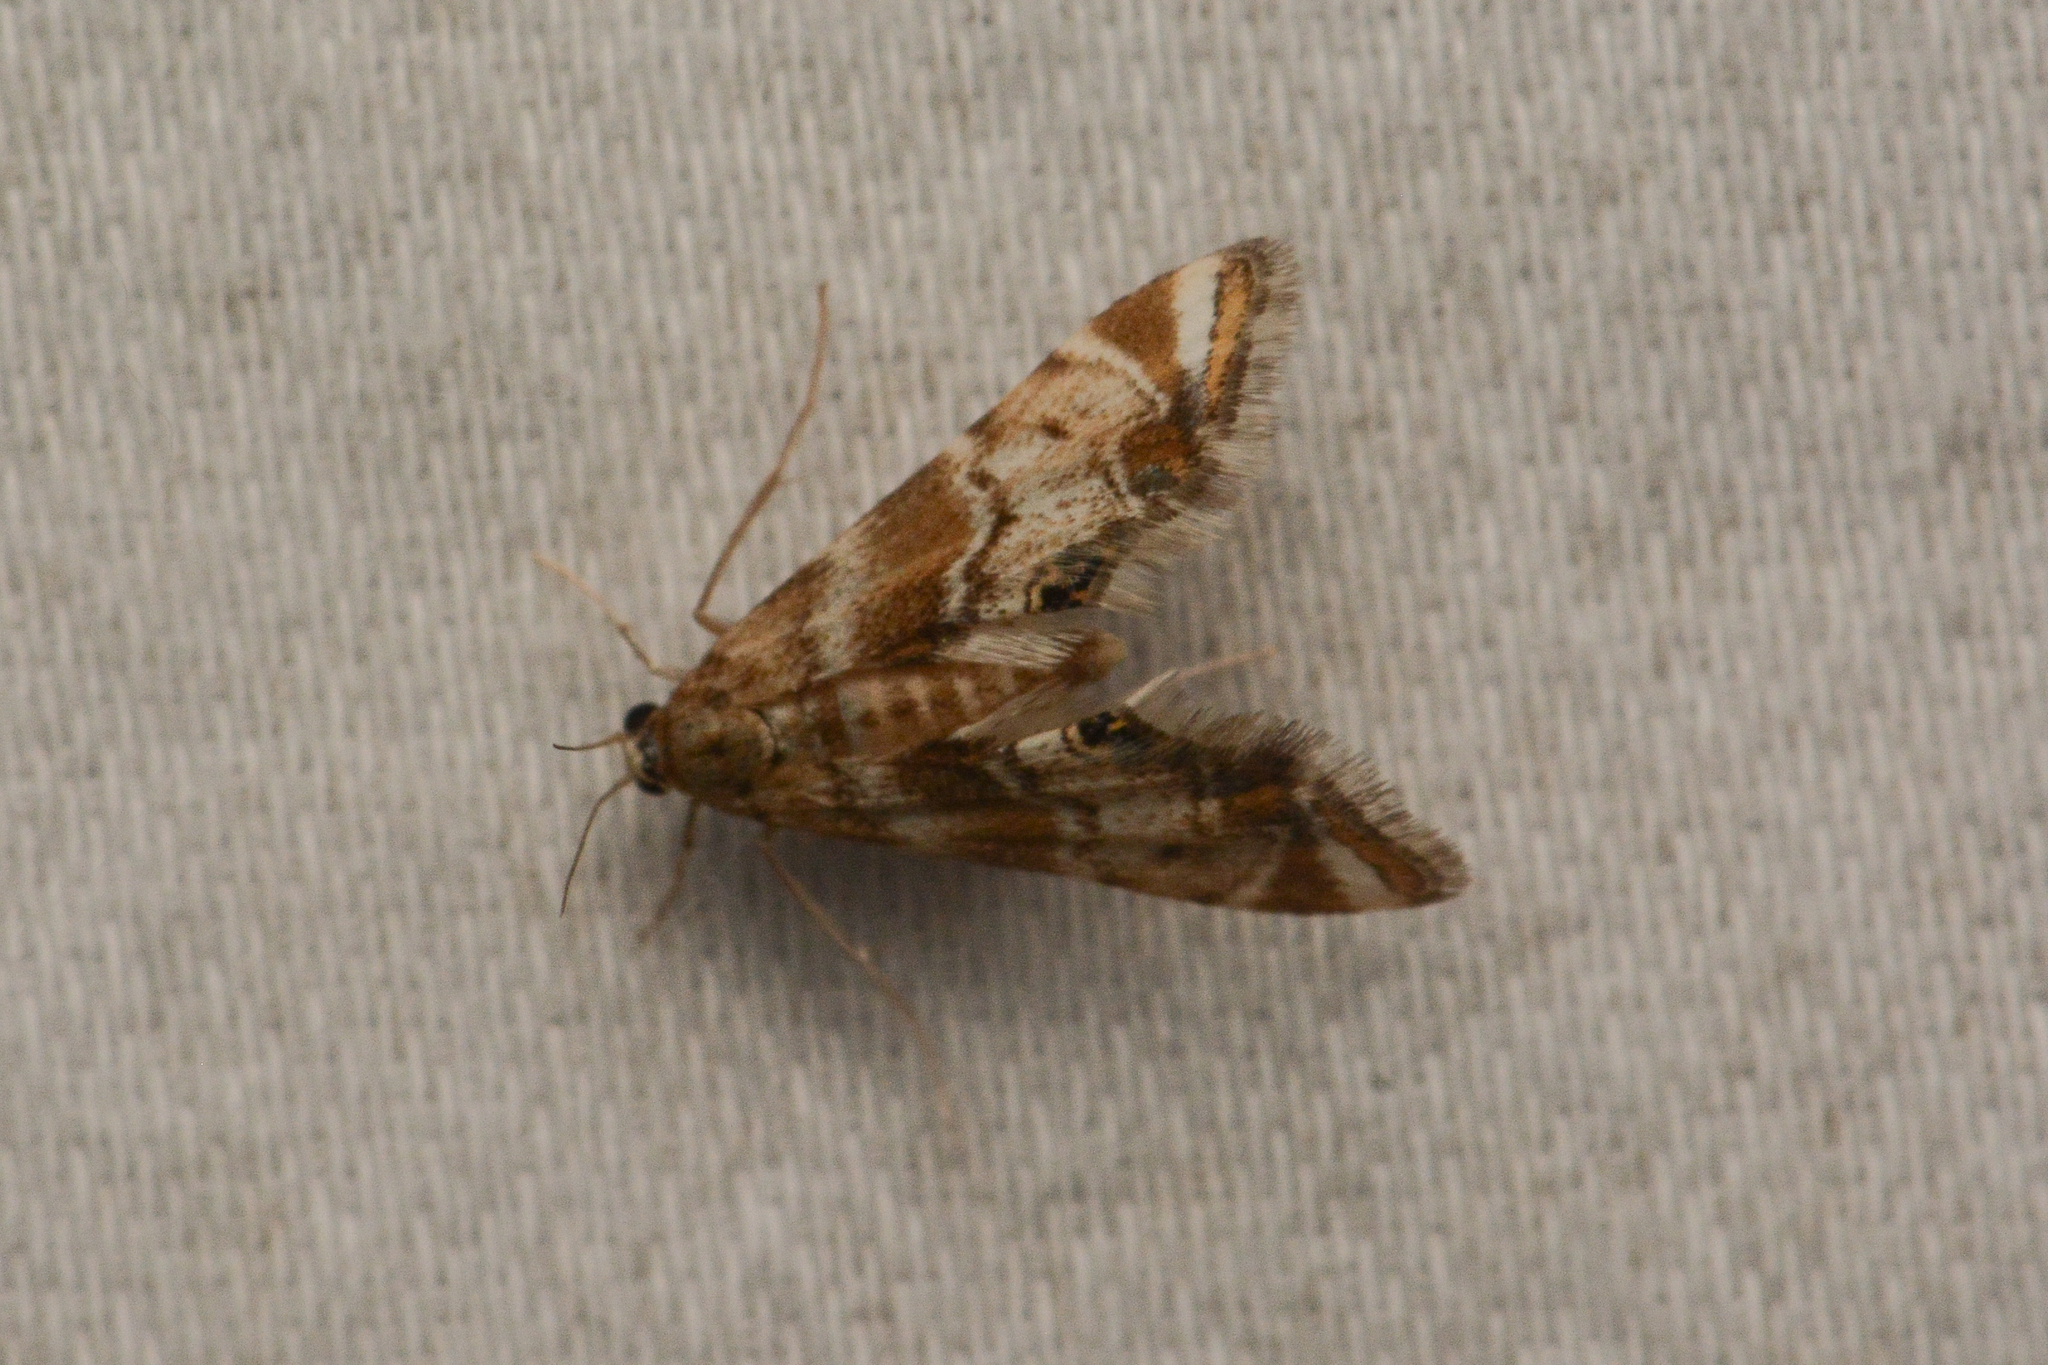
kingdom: Animalia
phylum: Arthropoda
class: Insecta
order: Lepidoptera
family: Crambidae
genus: Petrophila
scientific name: Petrophila confusalis
